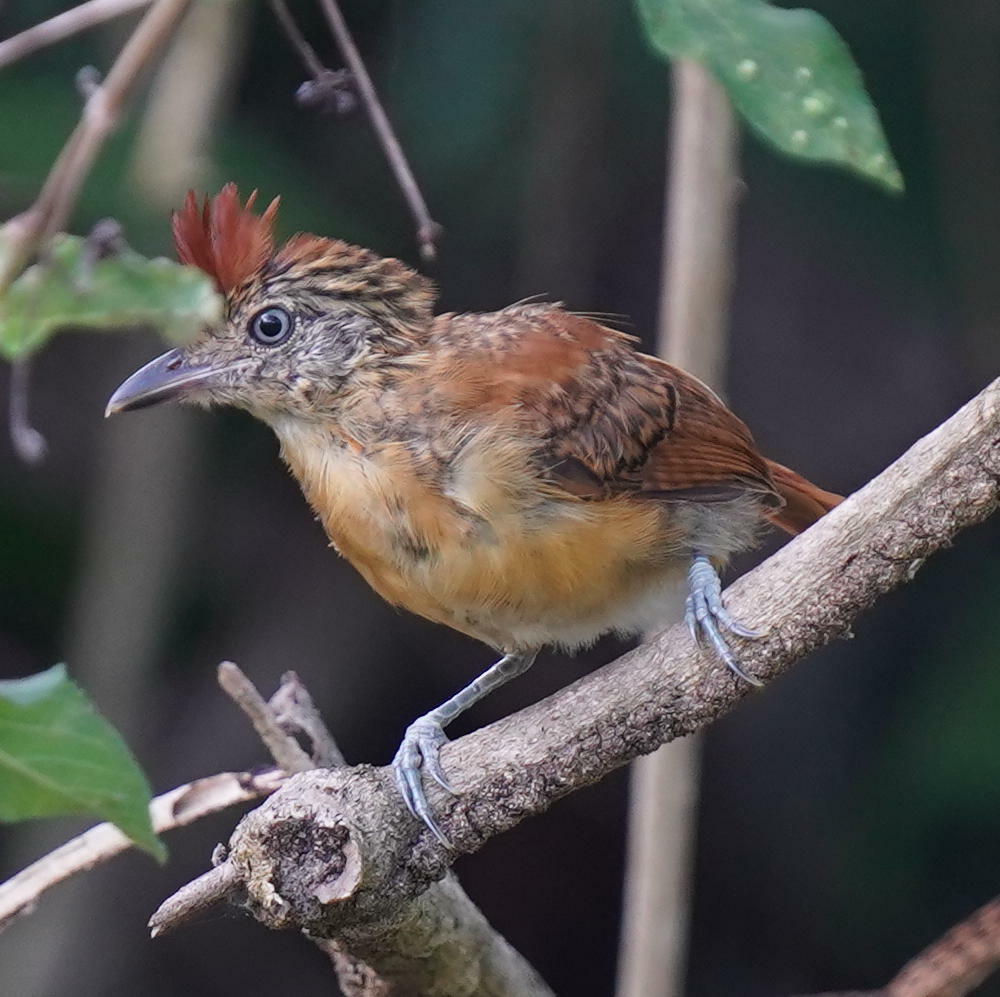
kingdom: Animalia
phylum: Chordata
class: Aves
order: Passeriformes
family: Thamnophilidae
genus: Thamnophilus
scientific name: Thamnophilus doliatus
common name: Barred antshrike
